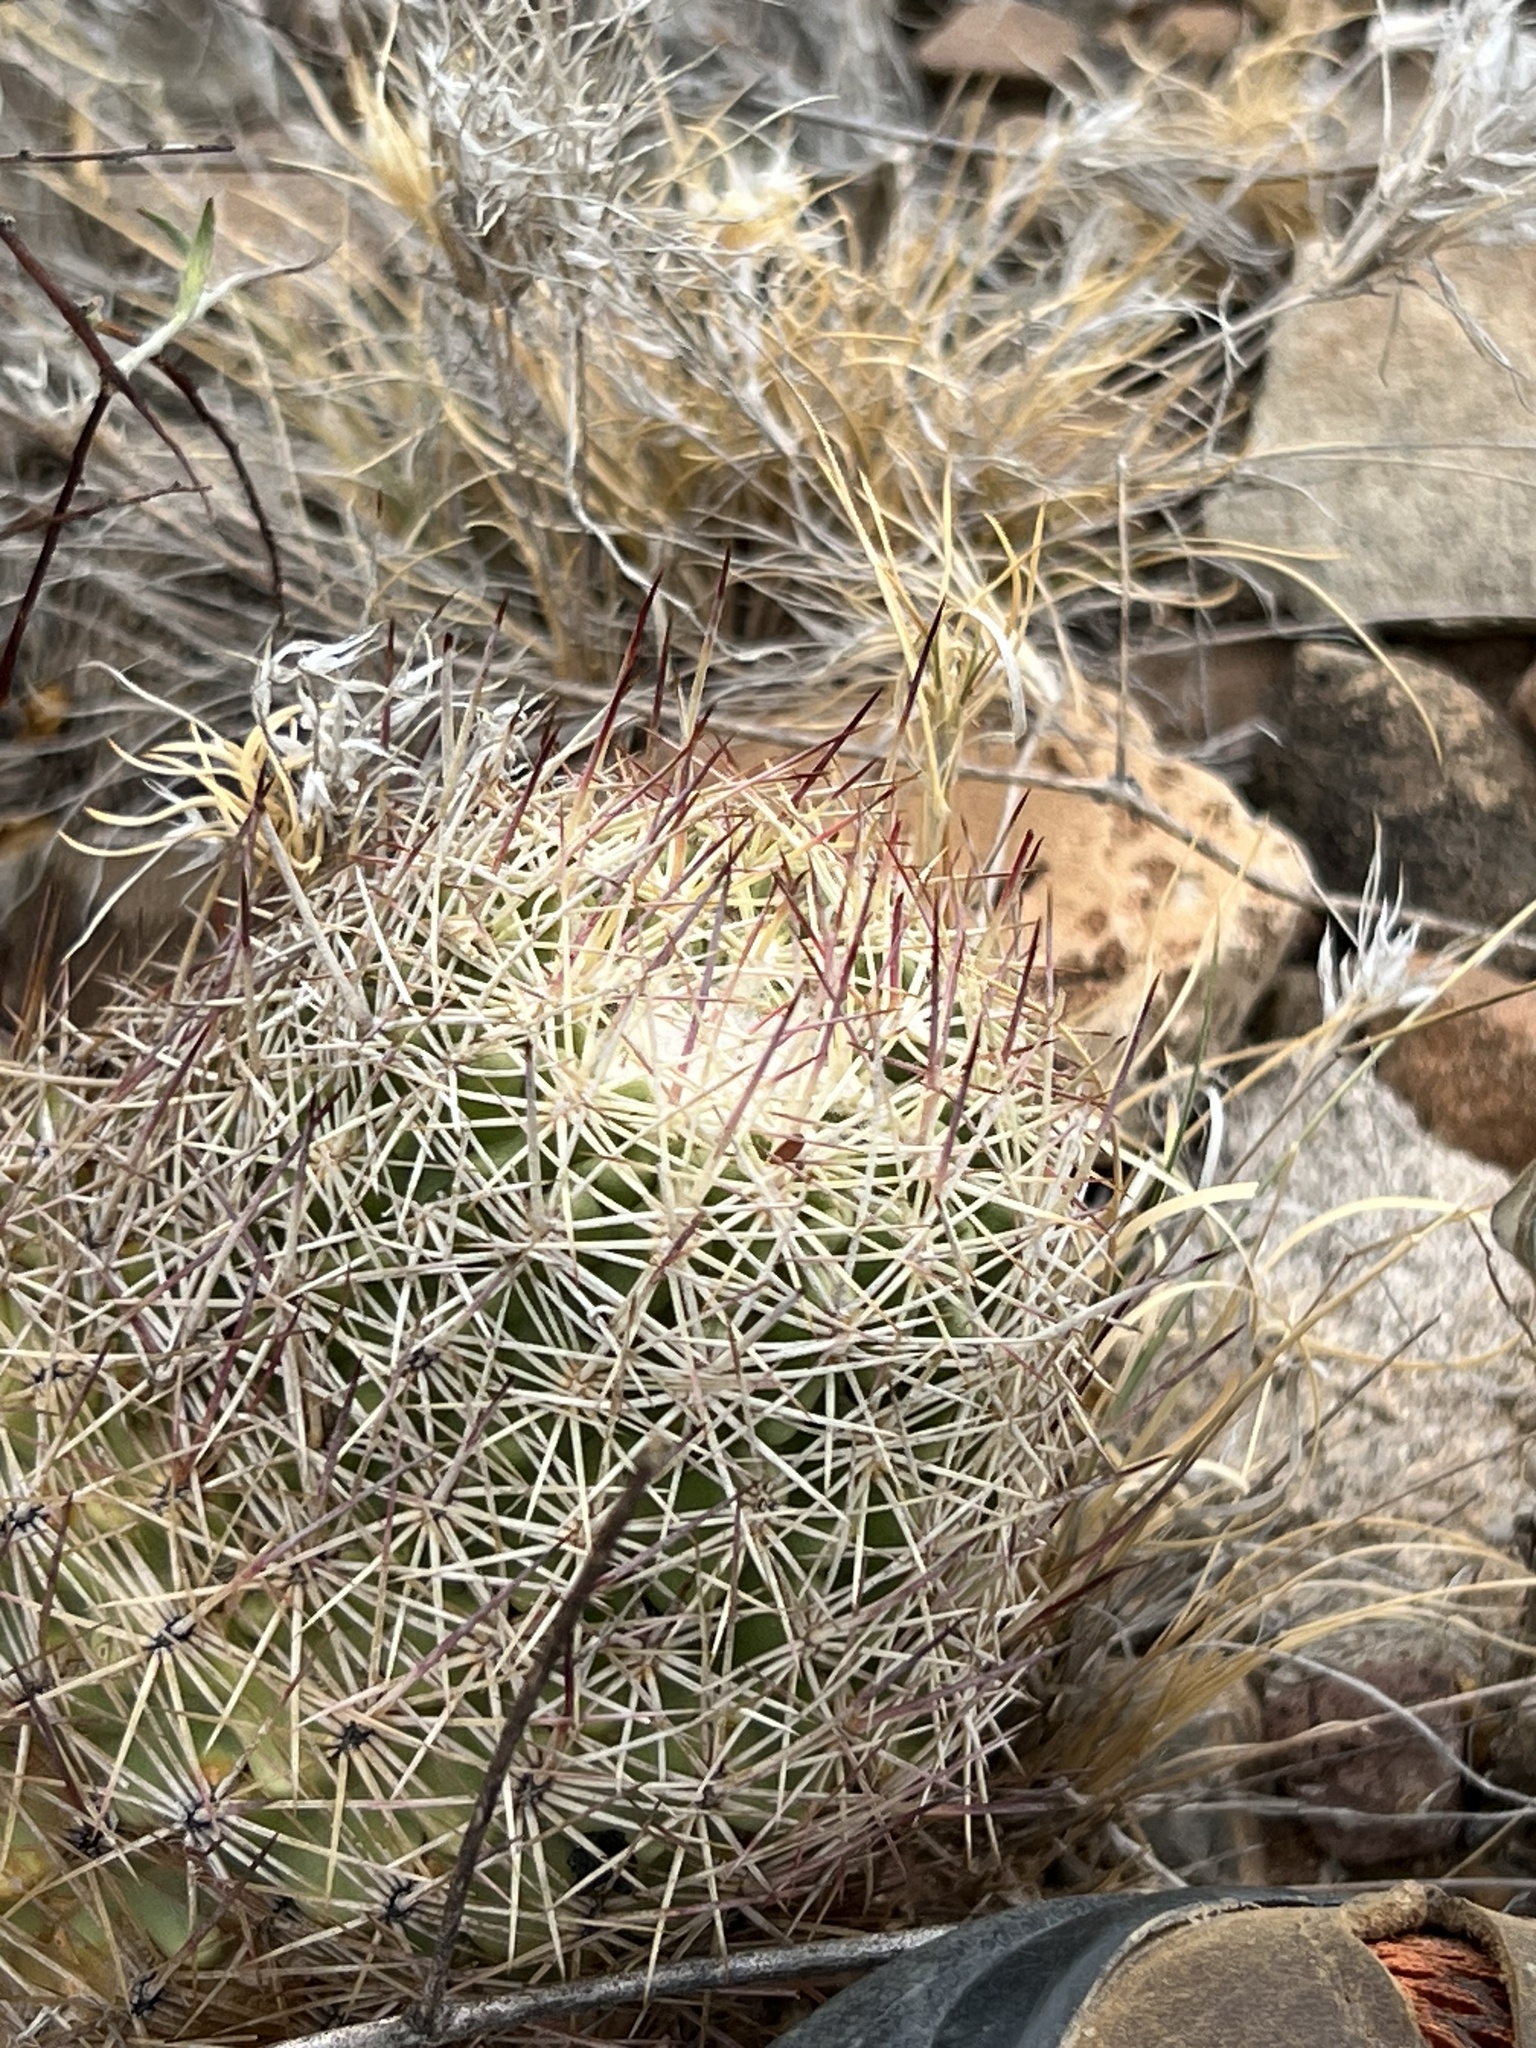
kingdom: Plantae
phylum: Tracheophyta
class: Magnoliopsida
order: Caryophyllales
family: Cactaceae
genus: Sclerocactus
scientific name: Sclerocactus johnsonii
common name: Eight-spine fishhook cactus
